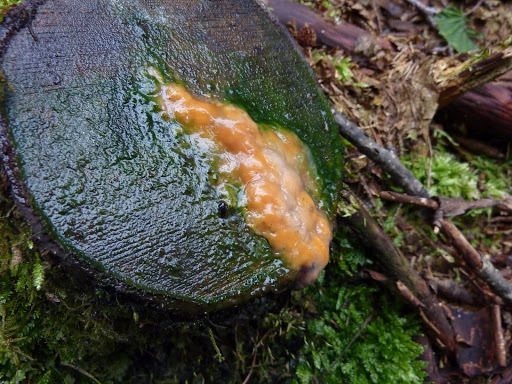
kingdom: Fungi
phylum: Basidiomycota
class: Tremellomycetes
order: Cystofilobasidiales
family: Cystofilobasidiaceae
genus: Cystofilobasidium
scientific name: Cystofilobasidium macerans
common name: Sap yeast
